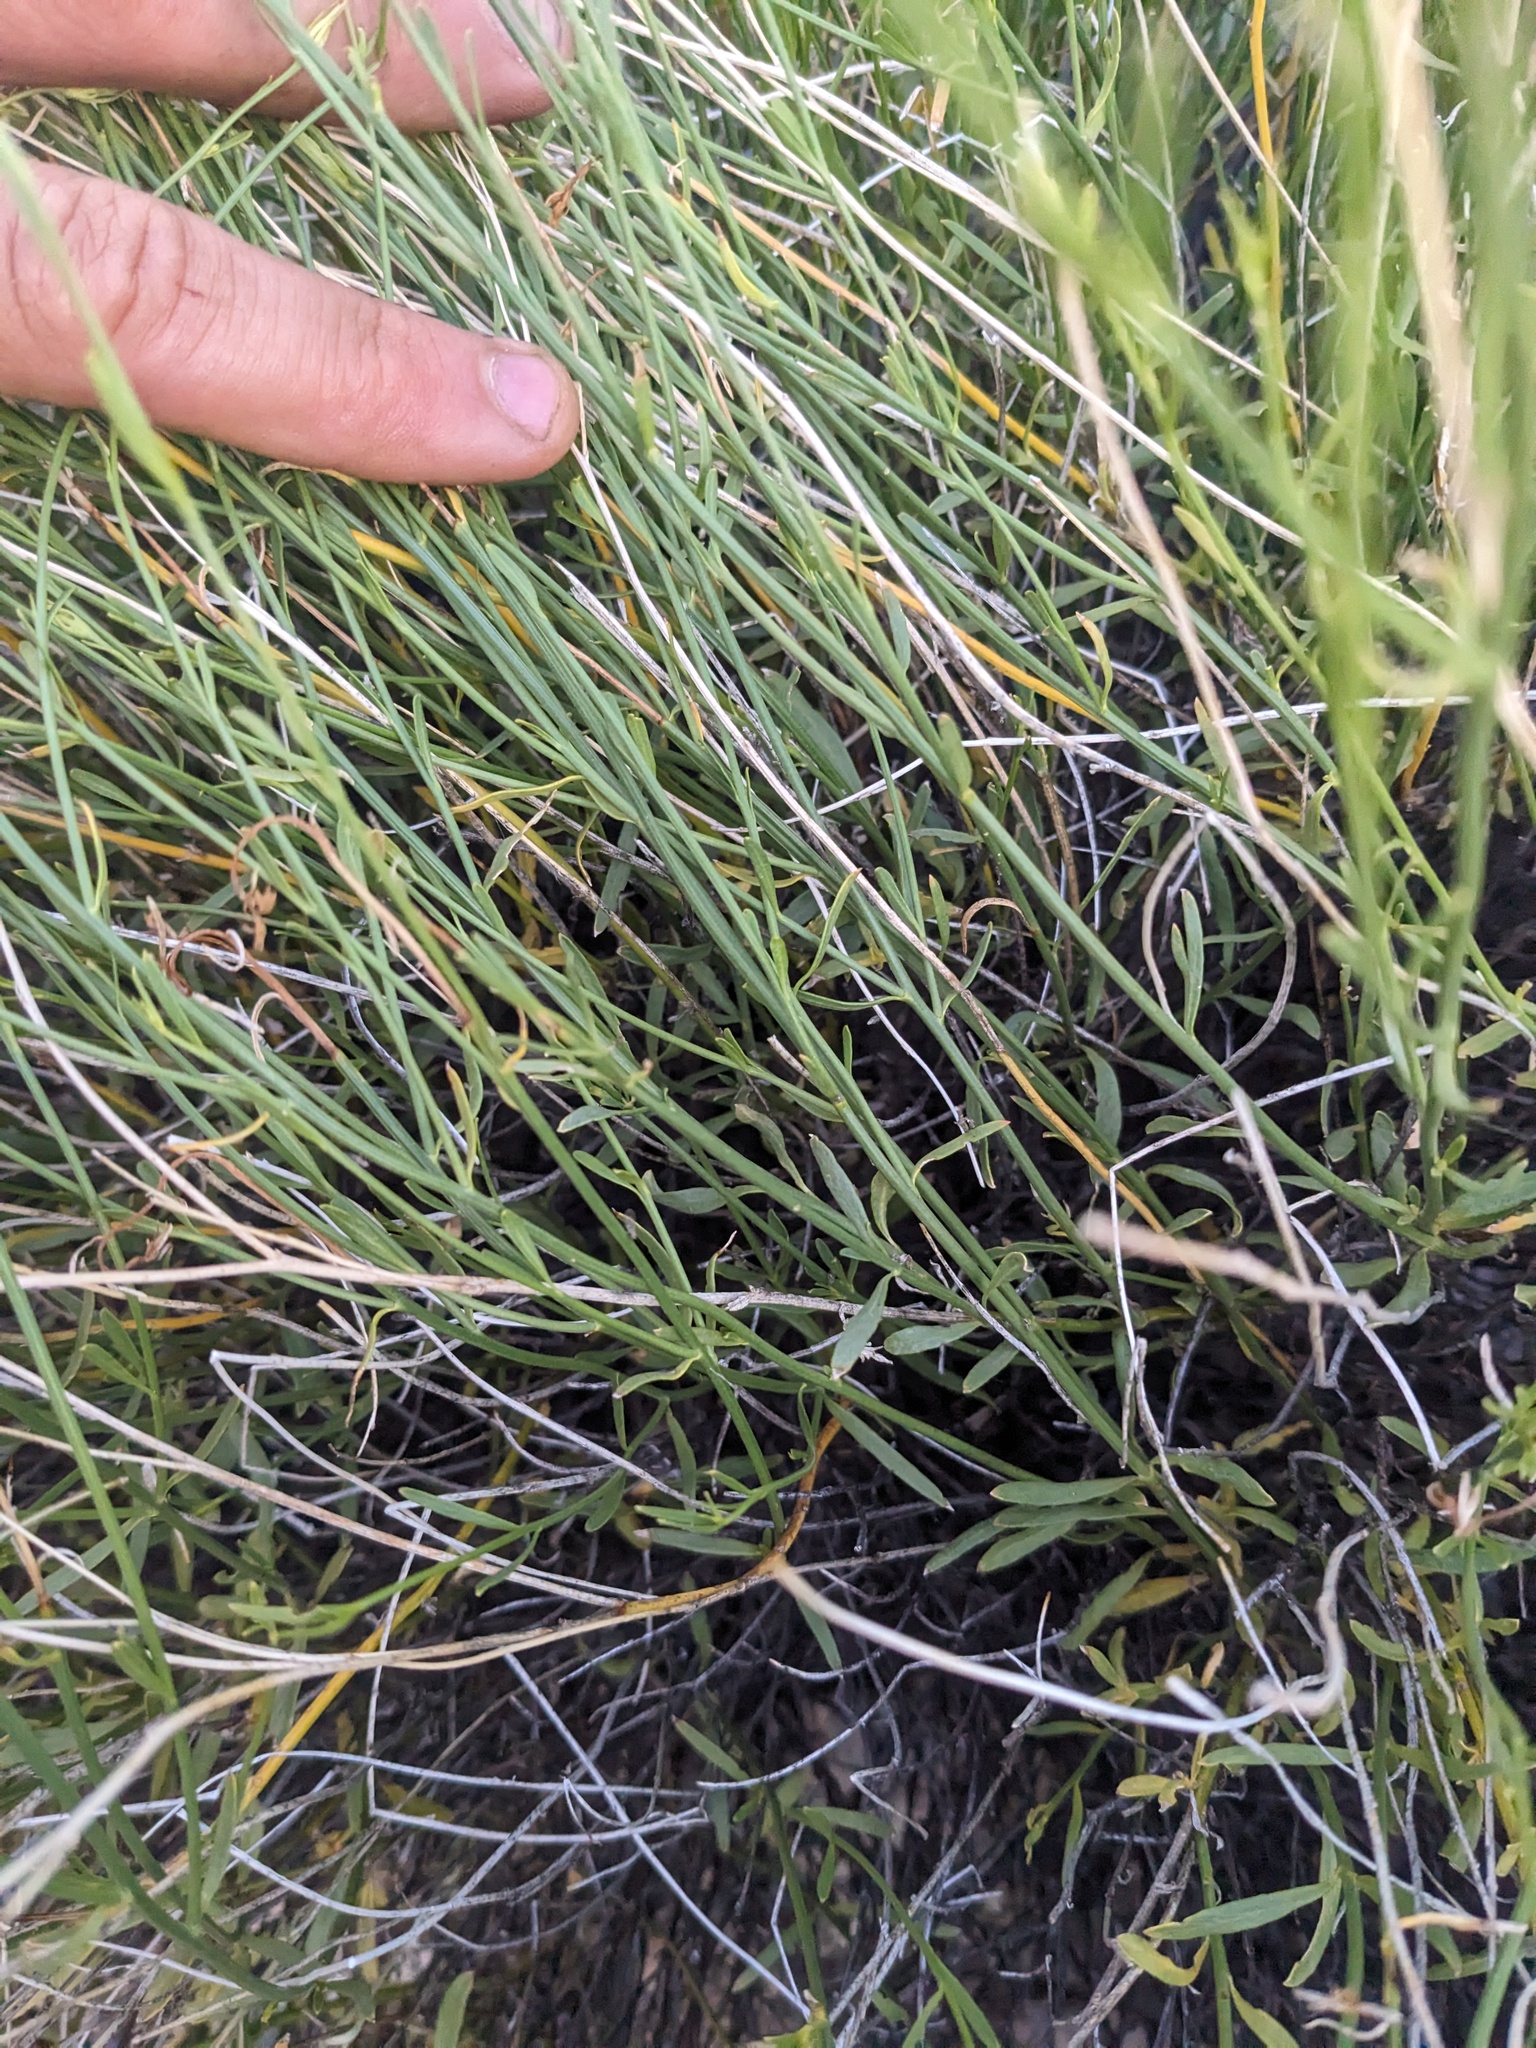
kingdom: Plantae
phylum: Tracheophyta
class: Magnoliopsida
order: Lamiales
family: Oleaceae
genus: Menodora
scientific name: Menodora scabra
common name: Rough menodora
